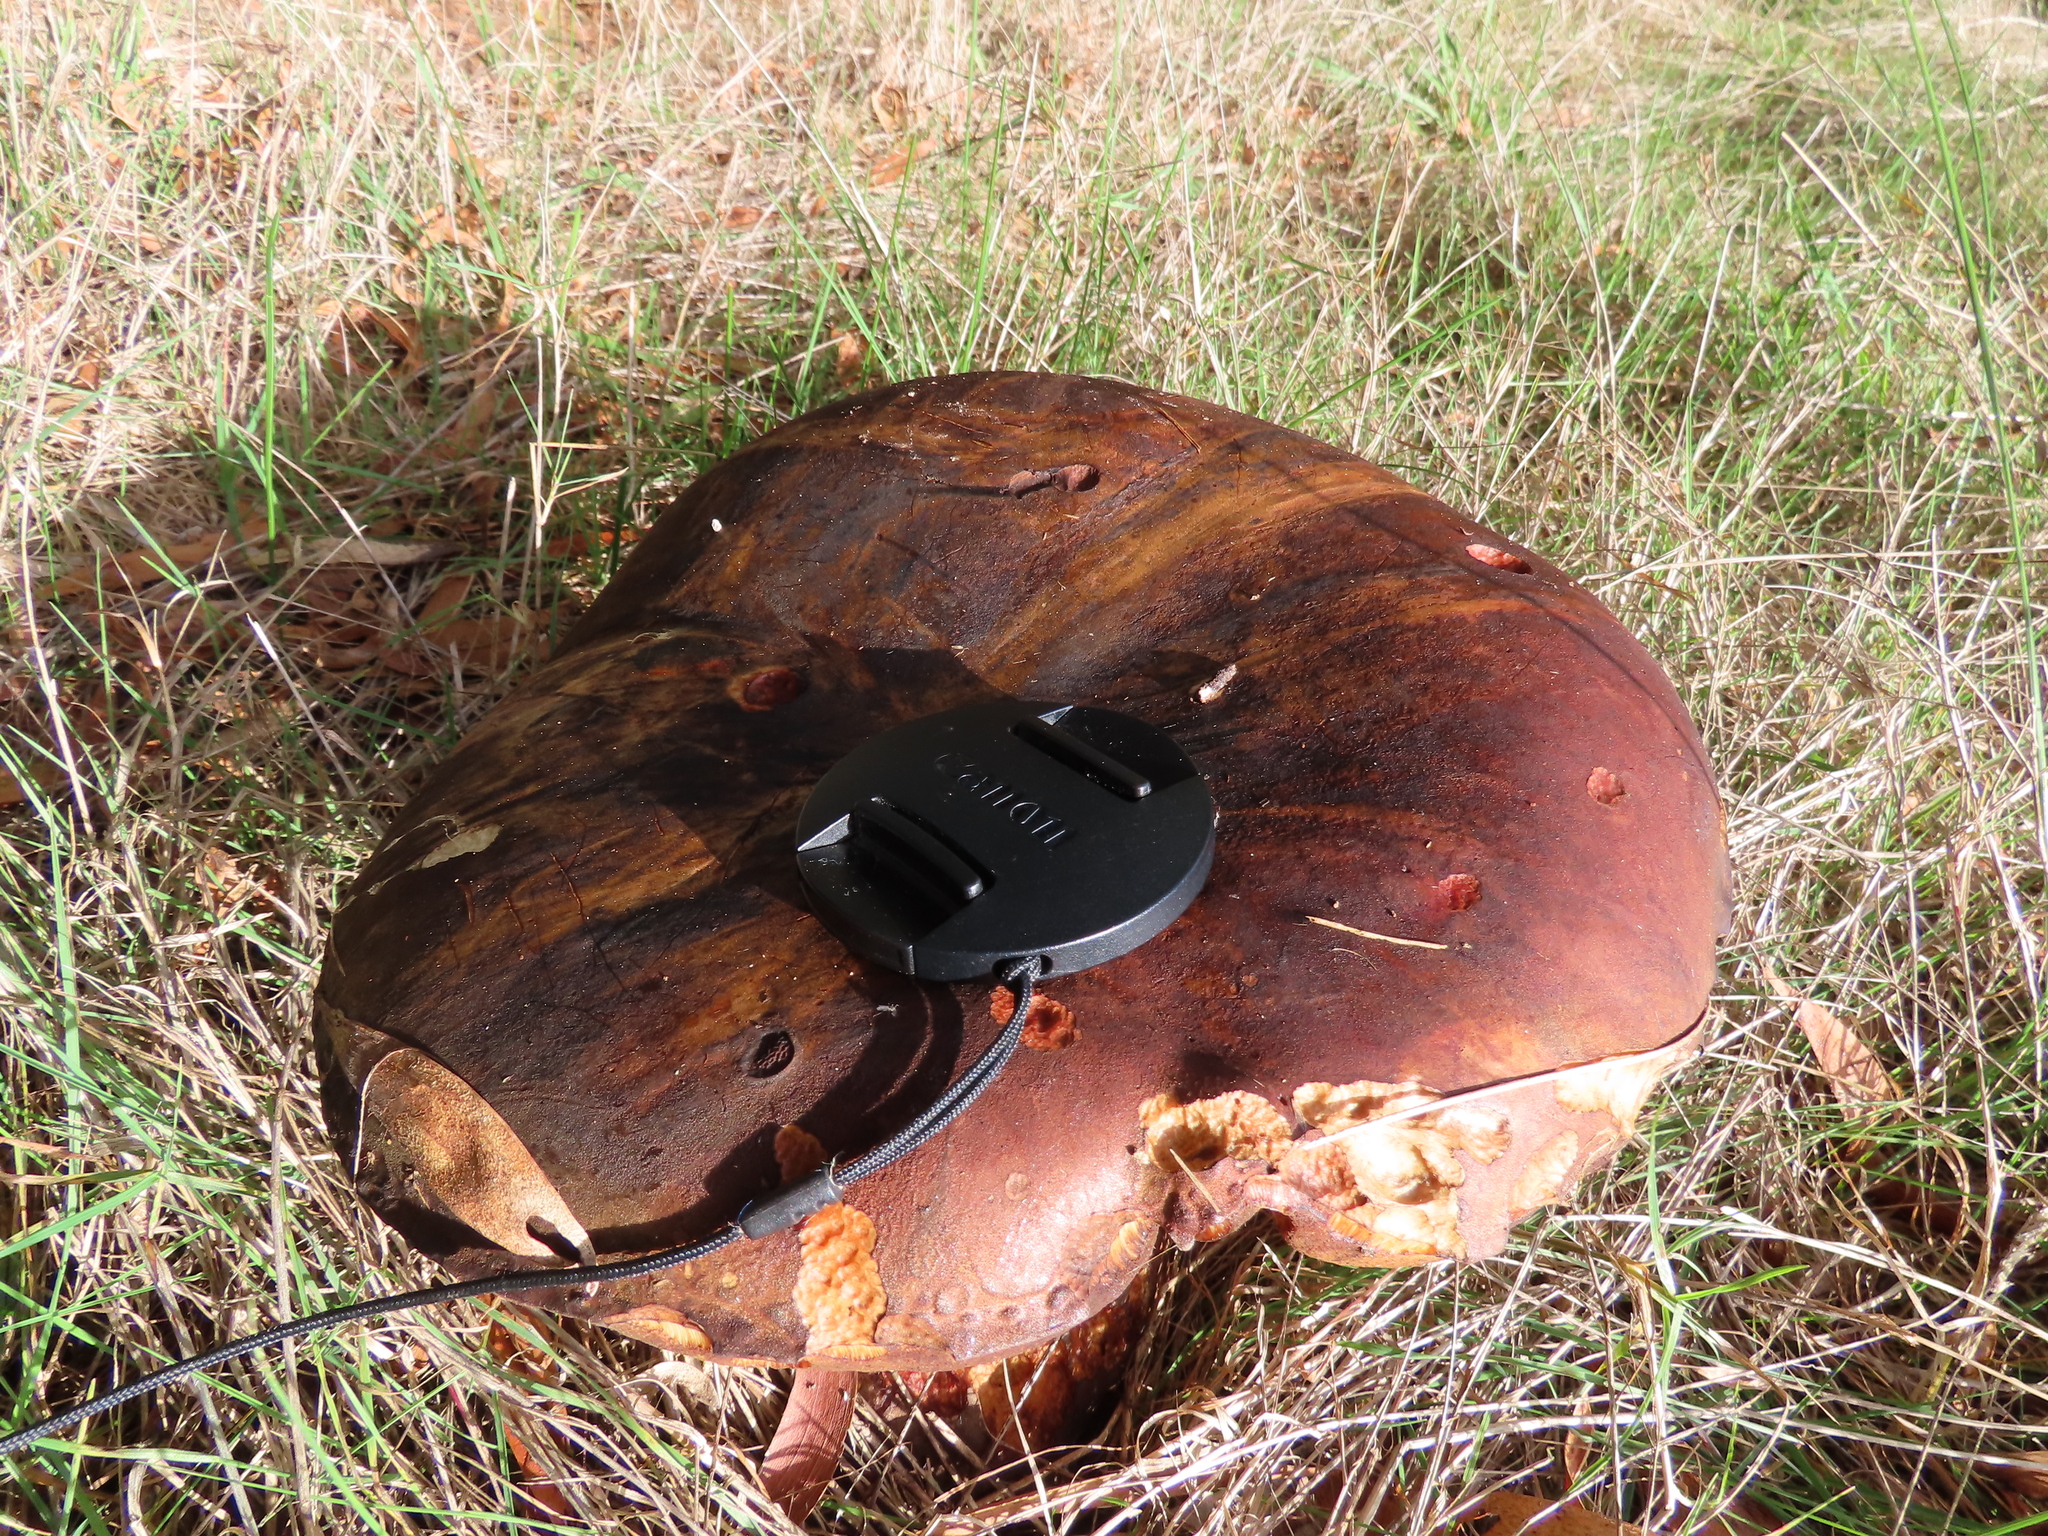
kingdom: Fungi
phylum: Basidiomycota
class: Agaricomycetes
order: Boletales
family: Boletinellaceae
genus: Phlebopus
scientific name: Phlebopus marginatus
